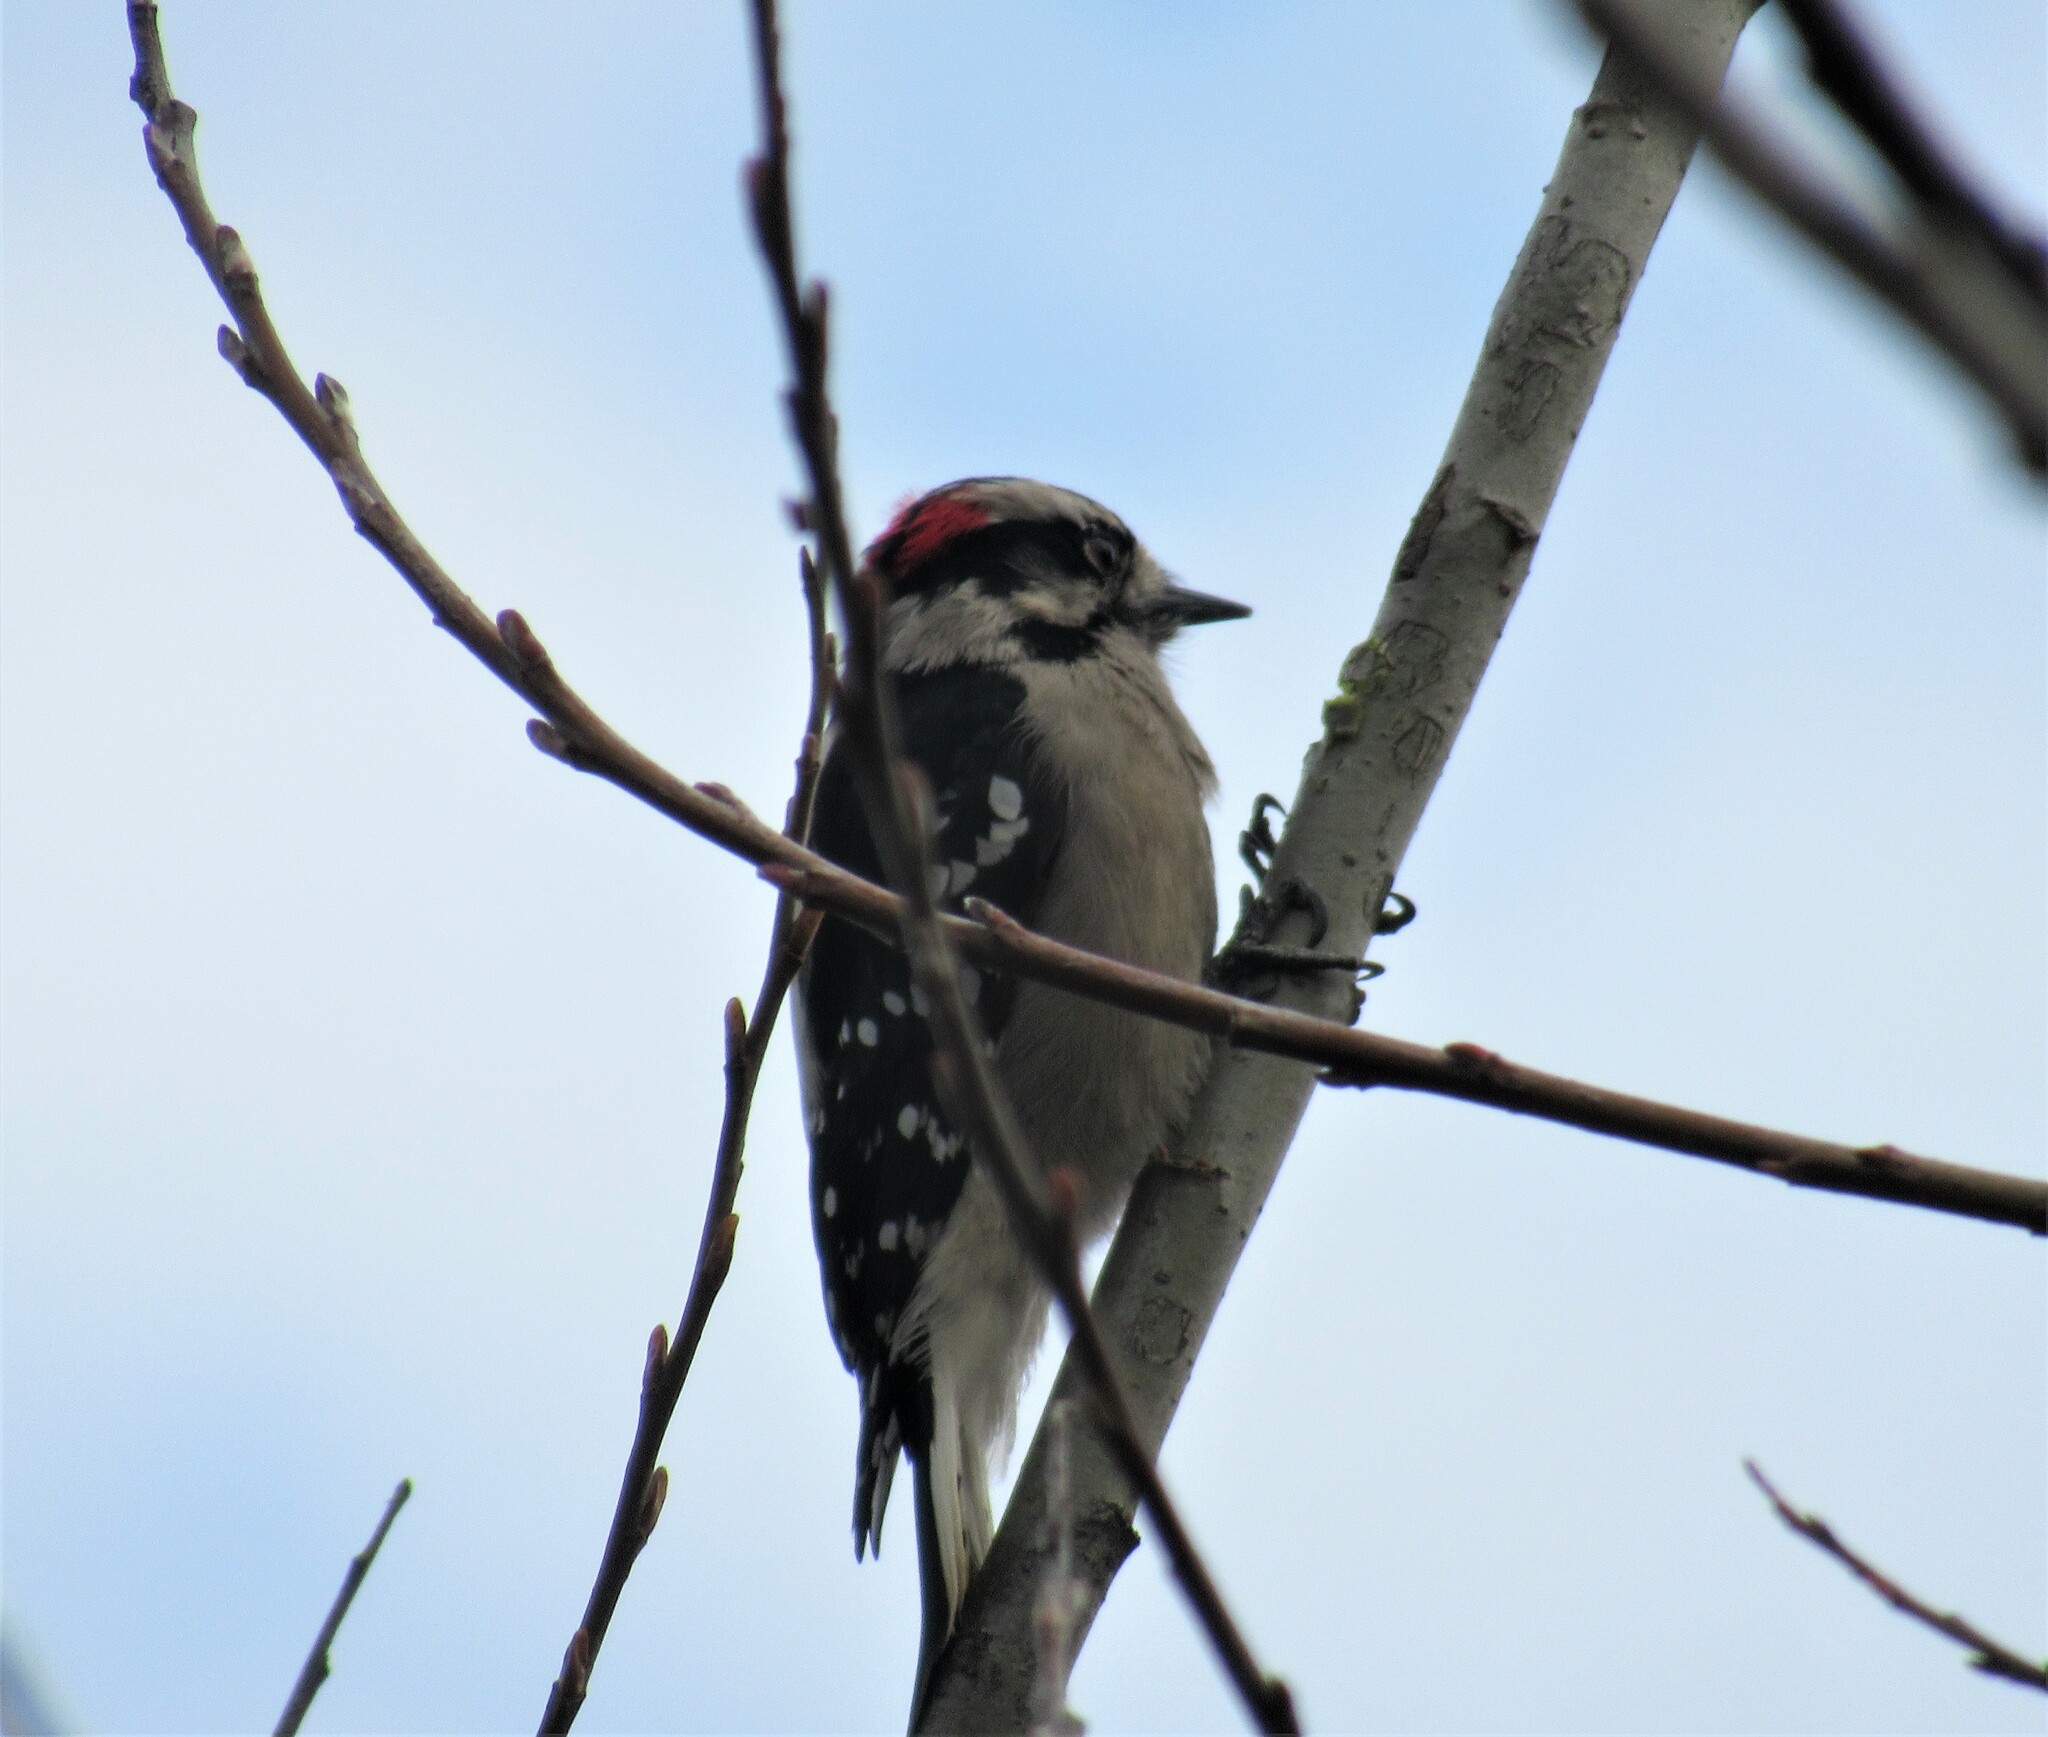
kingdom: Animalia
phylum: Chordata
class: Aves
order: Piciformes
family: Picidae
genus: Dryobates
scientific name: Dryobates pubescens
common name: Downy woodpecker
